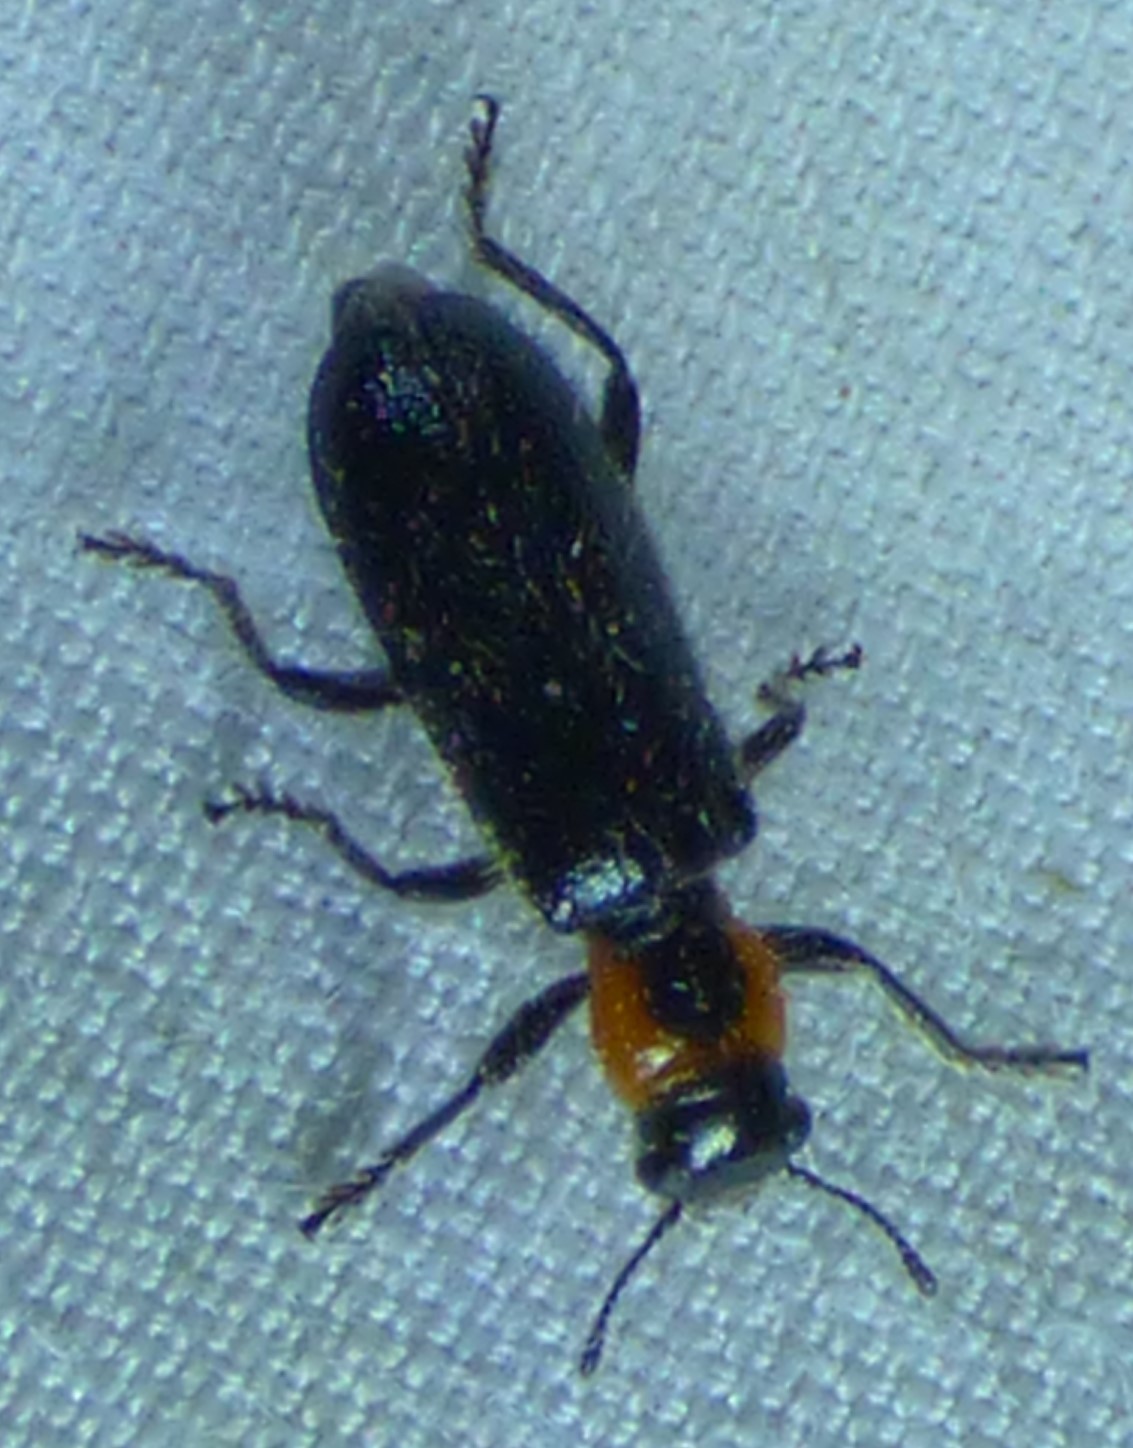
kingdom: Animalia
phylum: Arthropoda
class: Insecta
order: Coleoptera
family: Cleridae
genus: Placopterus
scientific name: Placopterus thoracicus
